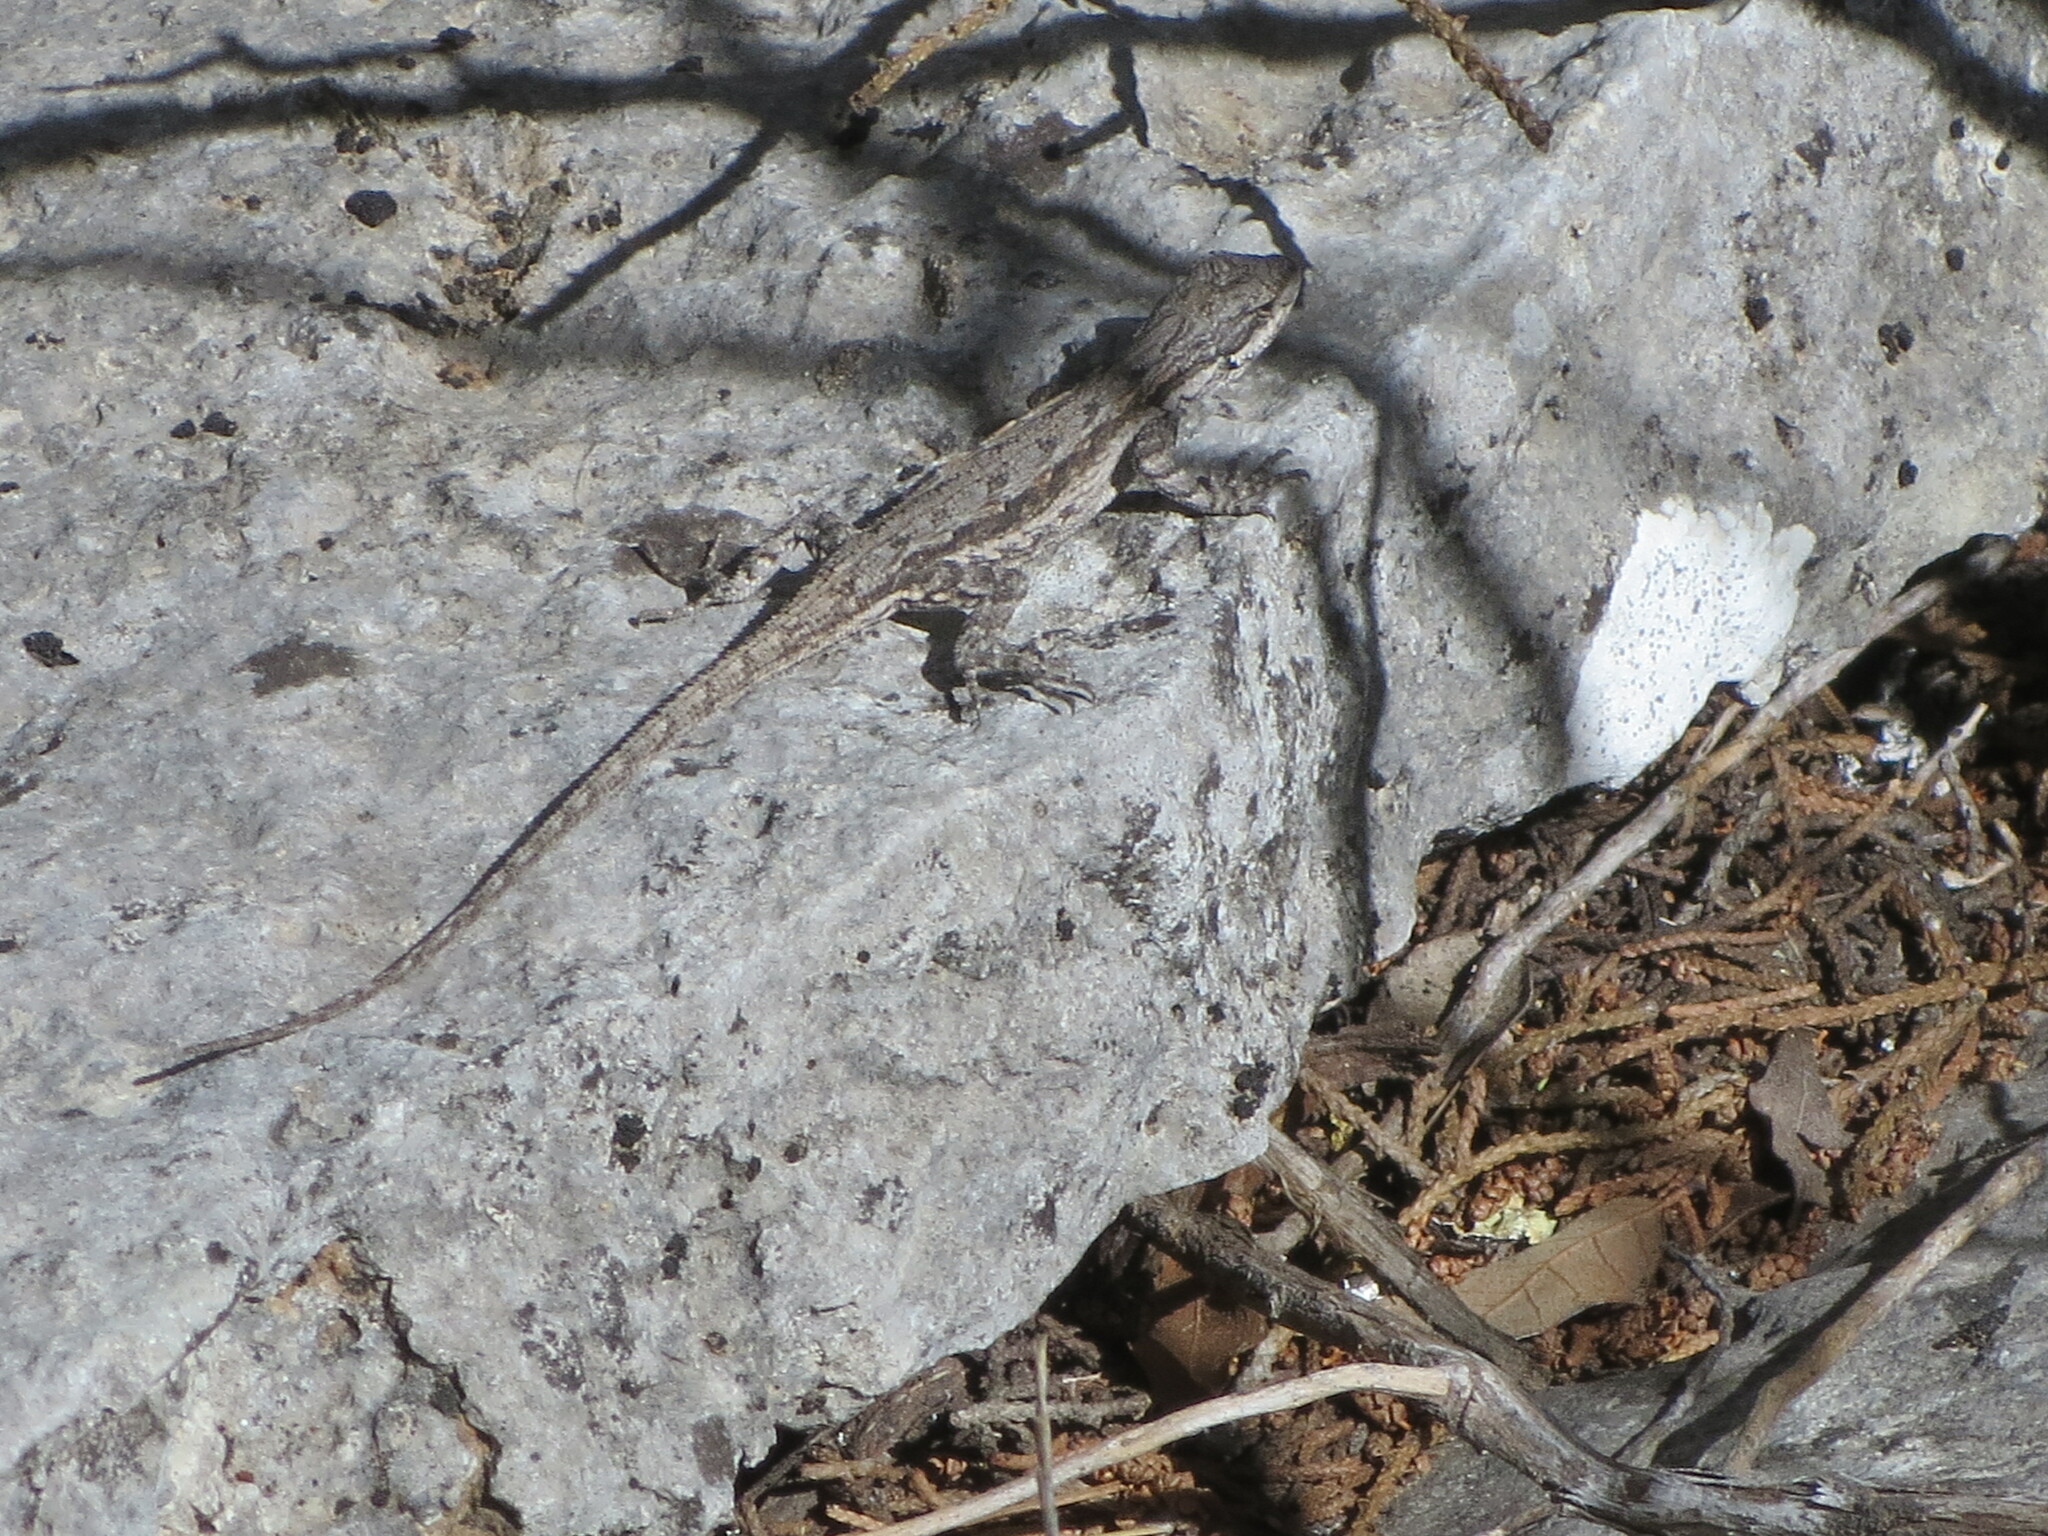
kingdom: Animalia
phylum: Chordata
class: Squamata
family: Phrynosomatidae
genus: Urosaurus
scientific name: Urosaurus ornatus
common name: Ornate tree lizard
